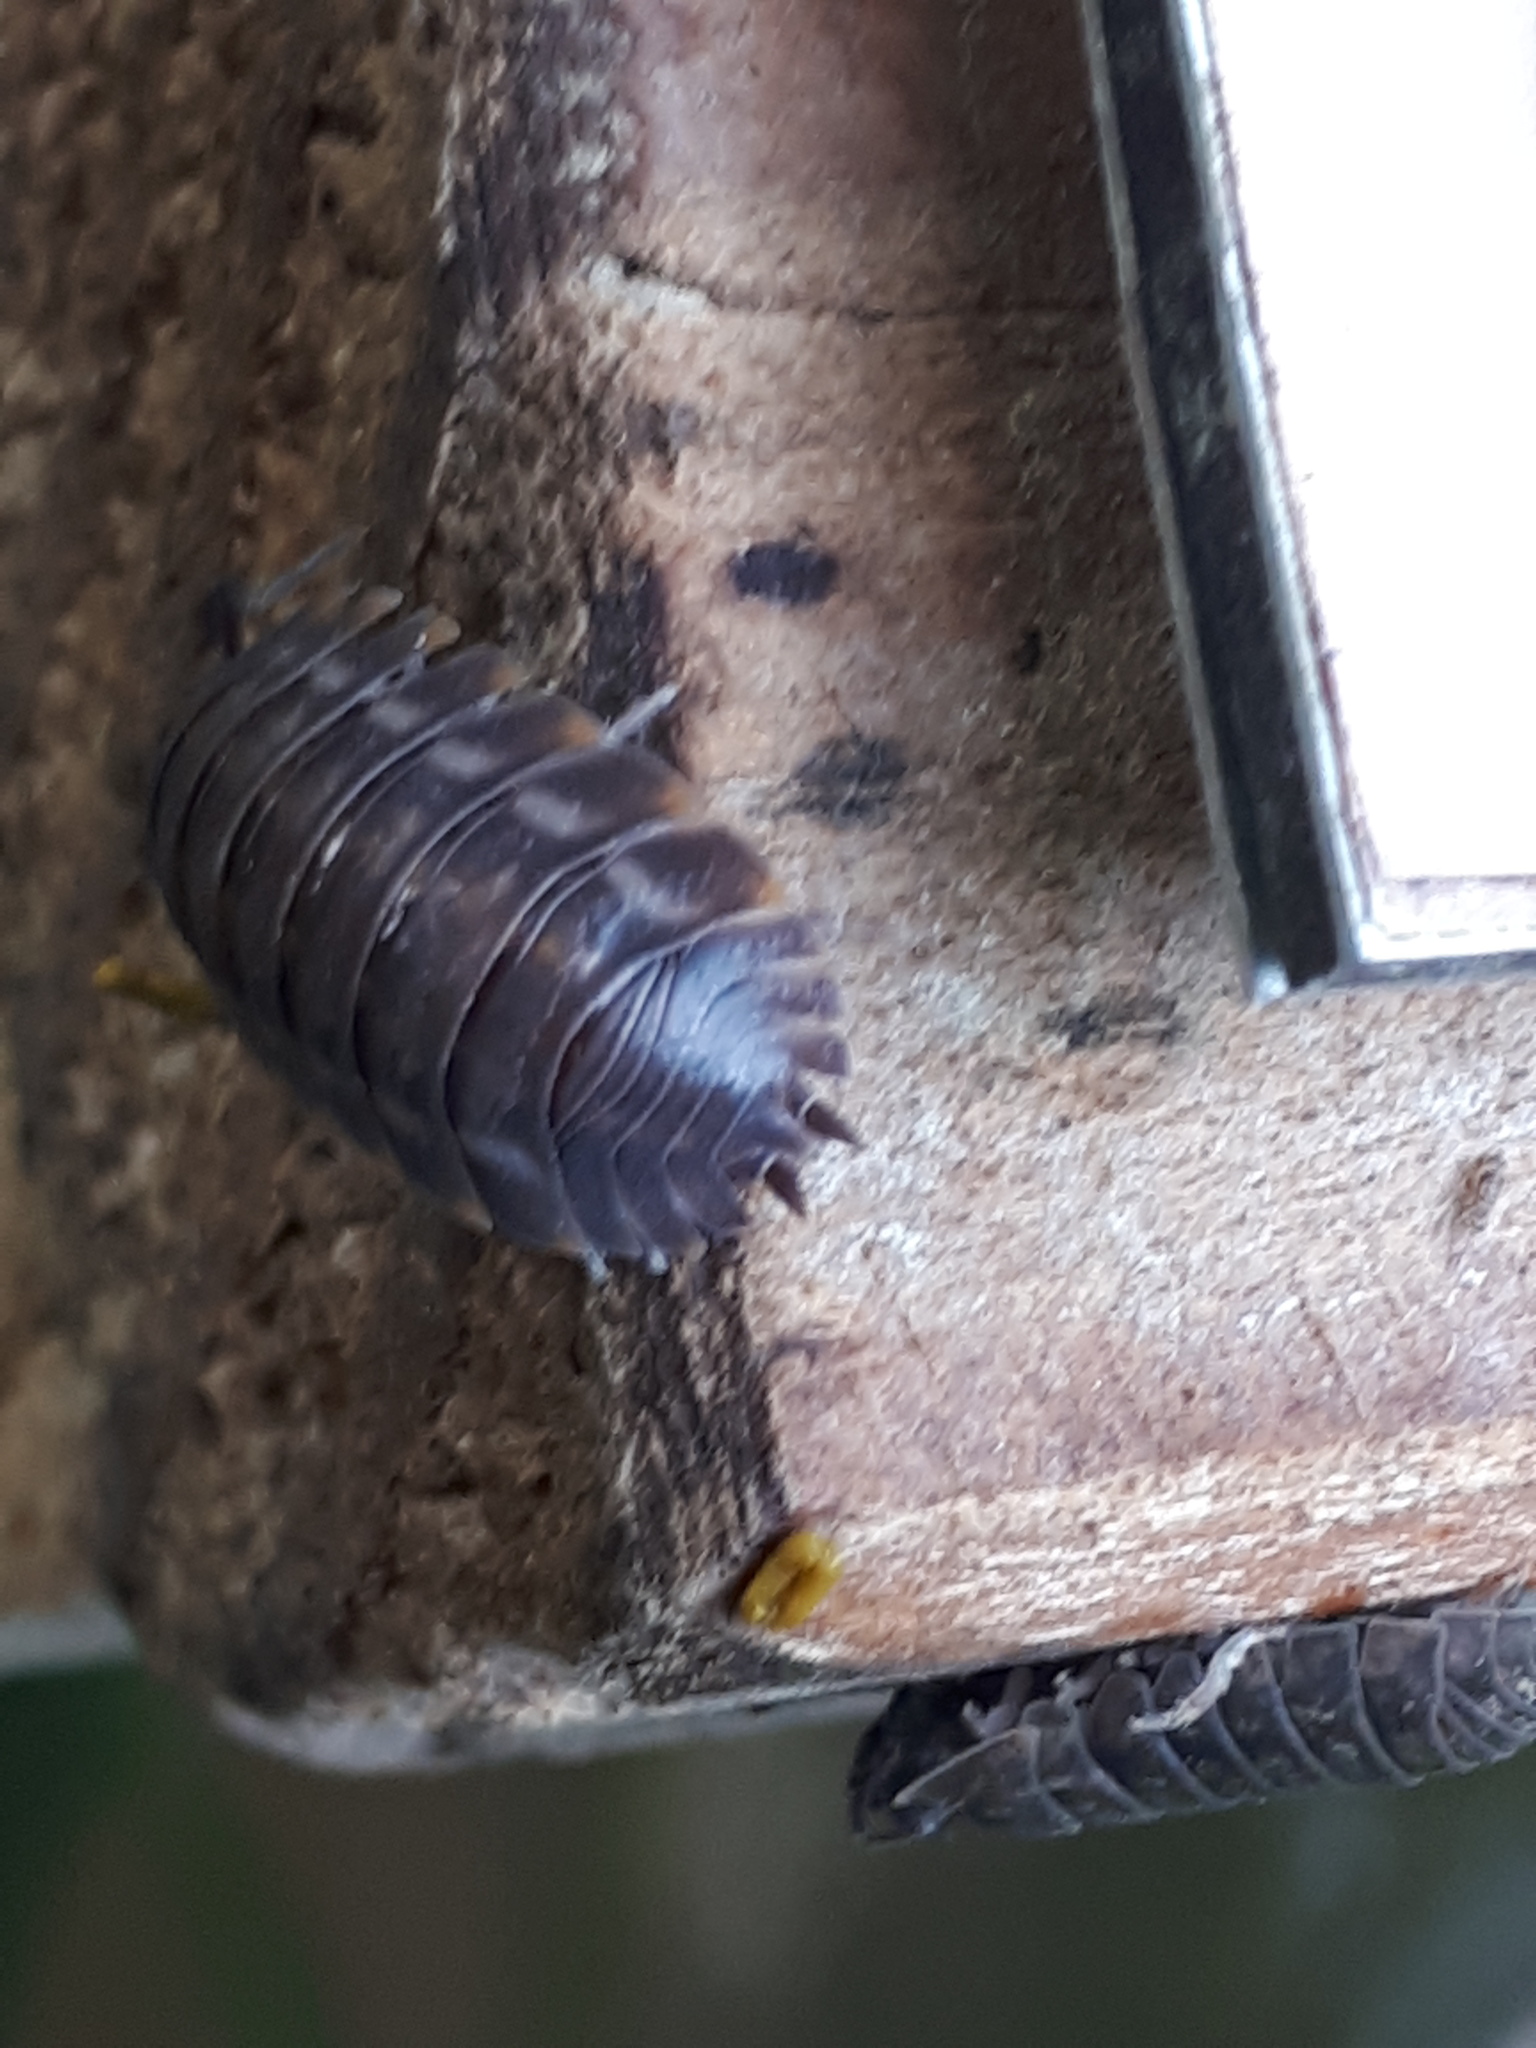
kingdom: Animalia
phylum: Arthropoda
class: Malacostraca
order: Isopoda
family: Trachelipodidae
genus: Trachelipus
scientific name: Trachelipus ratzeburgii
